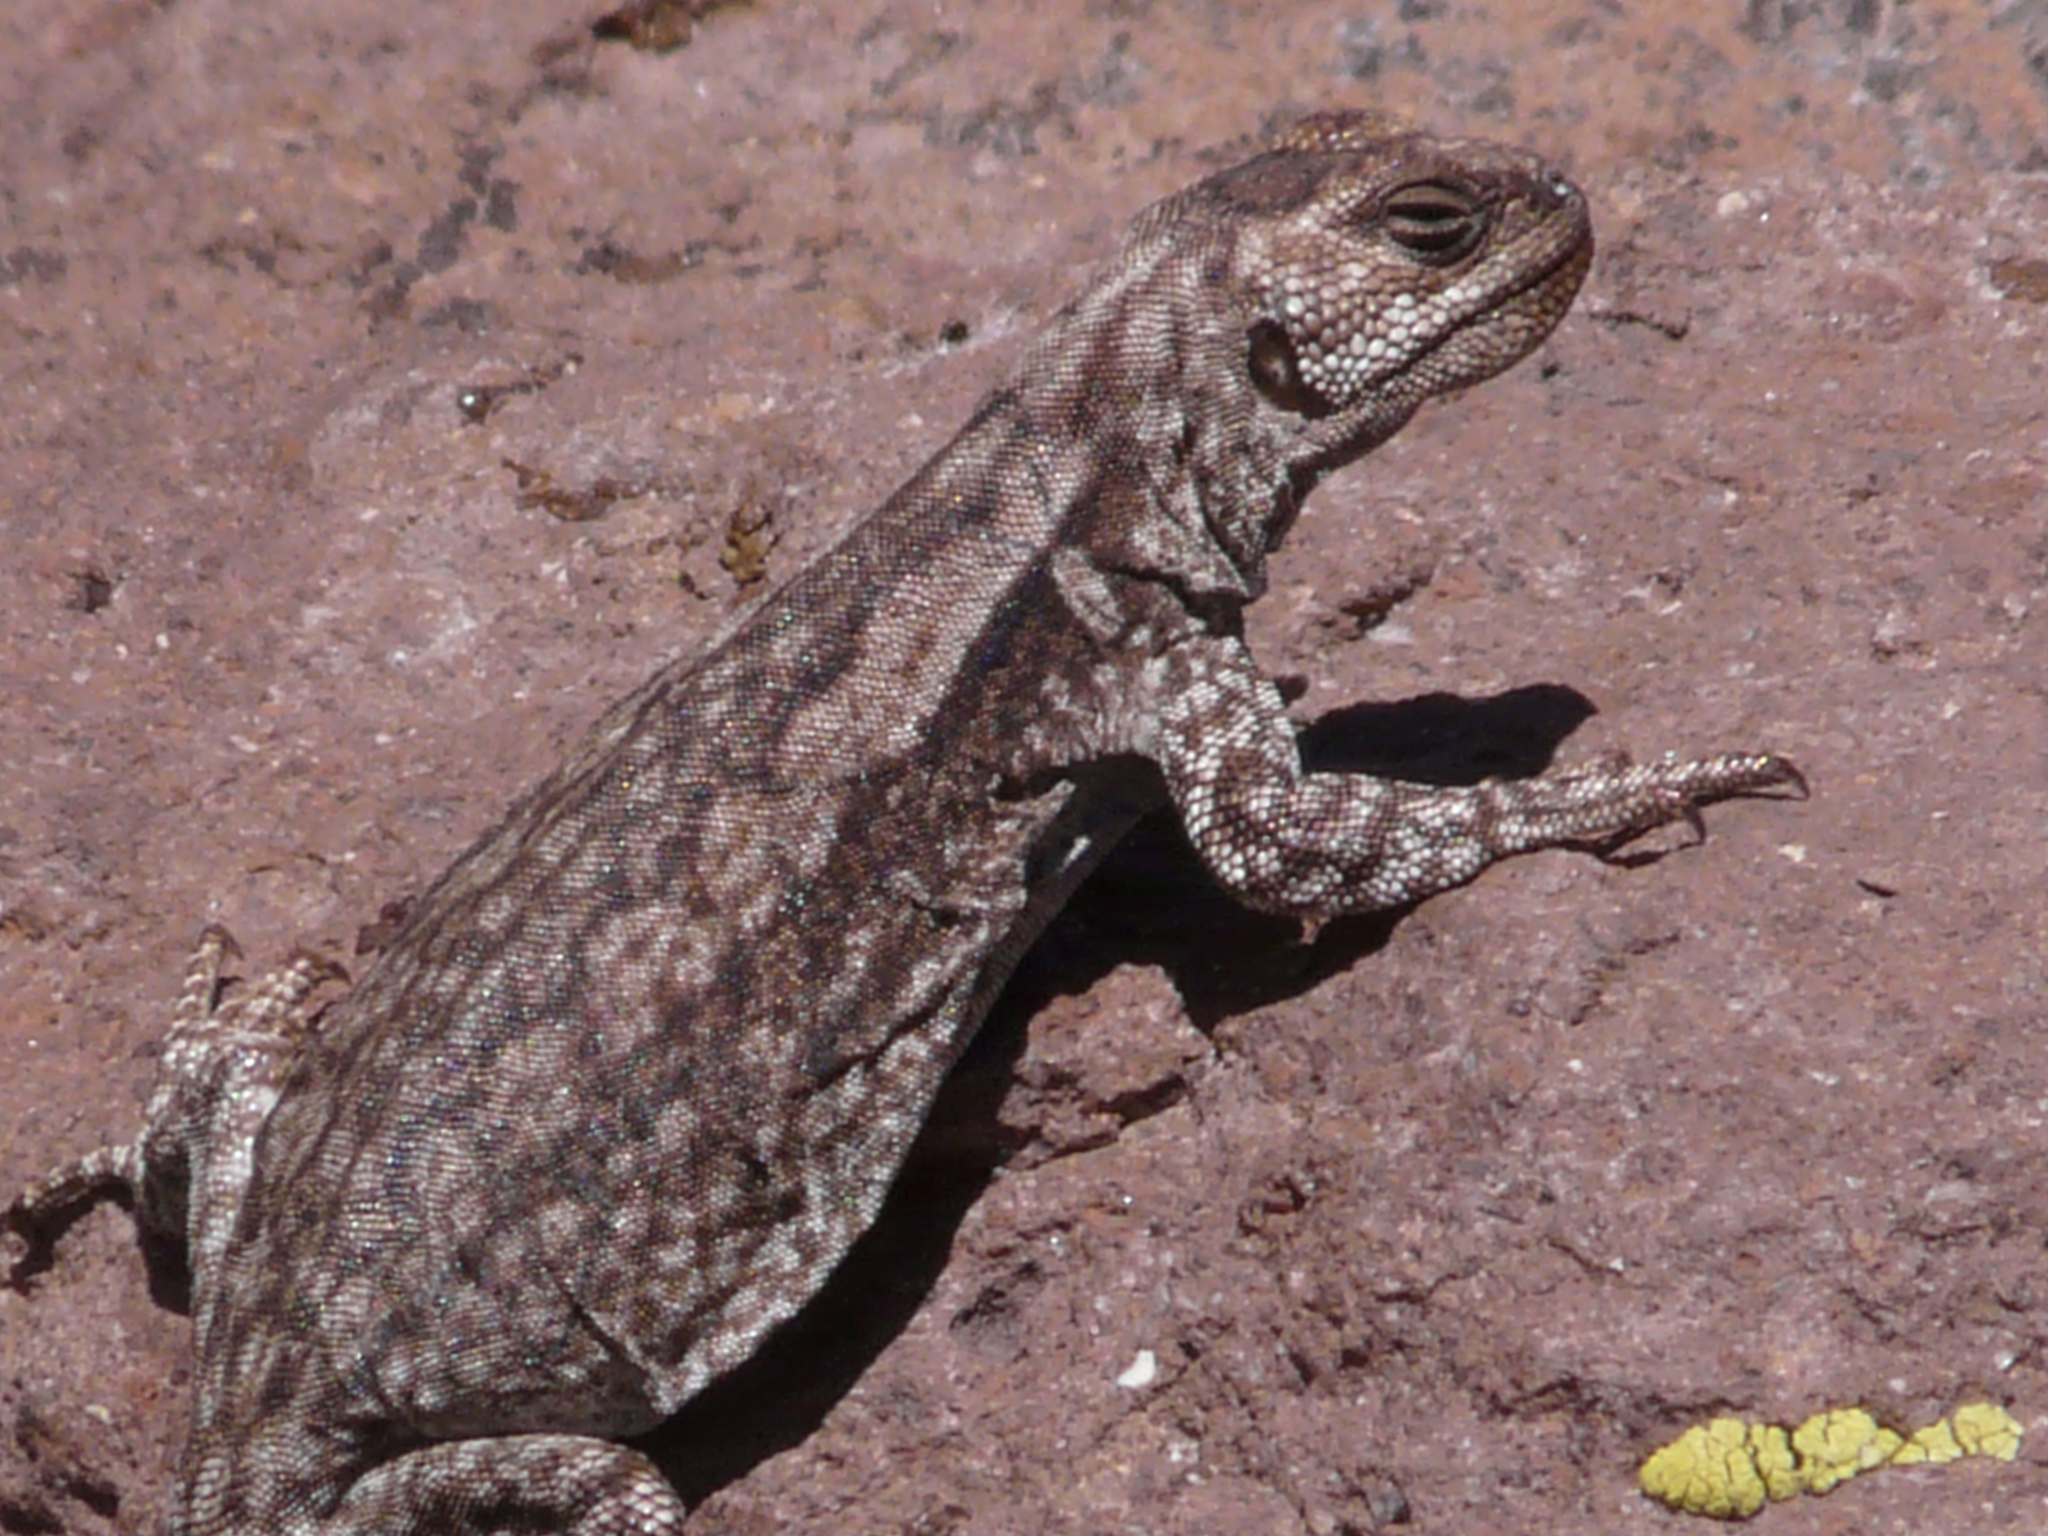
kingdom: Animalia
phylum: Chordata
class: Squamata
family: Liolaemidae
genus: Phymaturus
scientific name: Phymaturus roigorum
